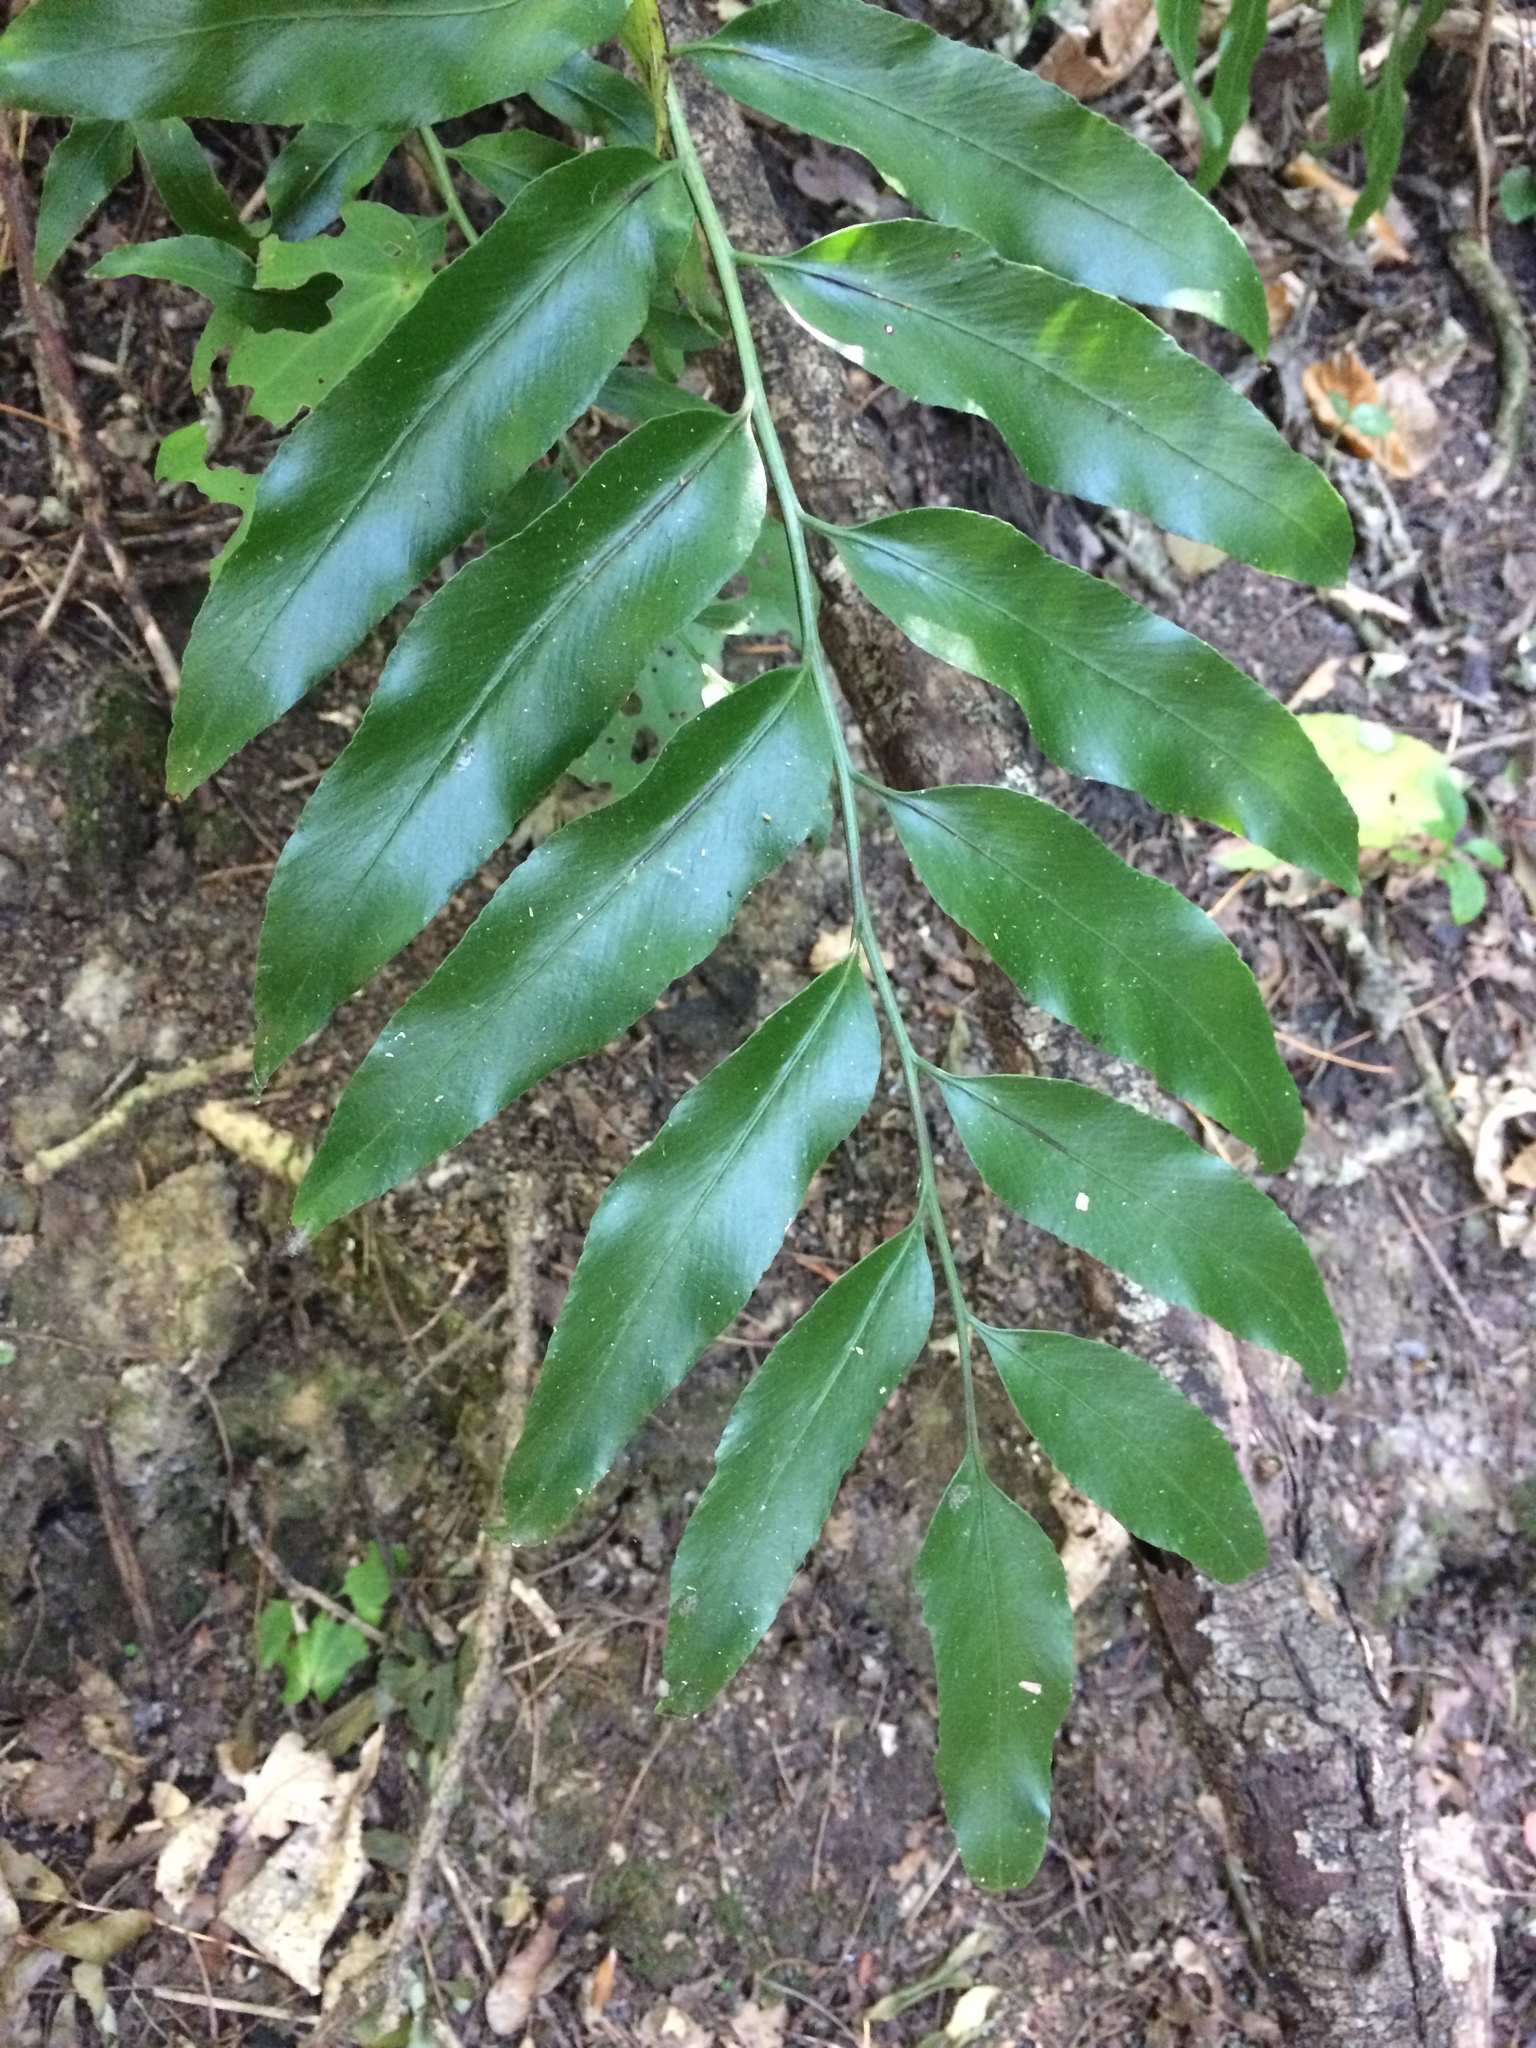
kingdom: Plantae
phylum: Tracheophyta
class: Polypodiopsida
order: Polypodiales
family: Aspleniaceae
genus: Asplenium
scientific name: Asplenium oblongifolium
